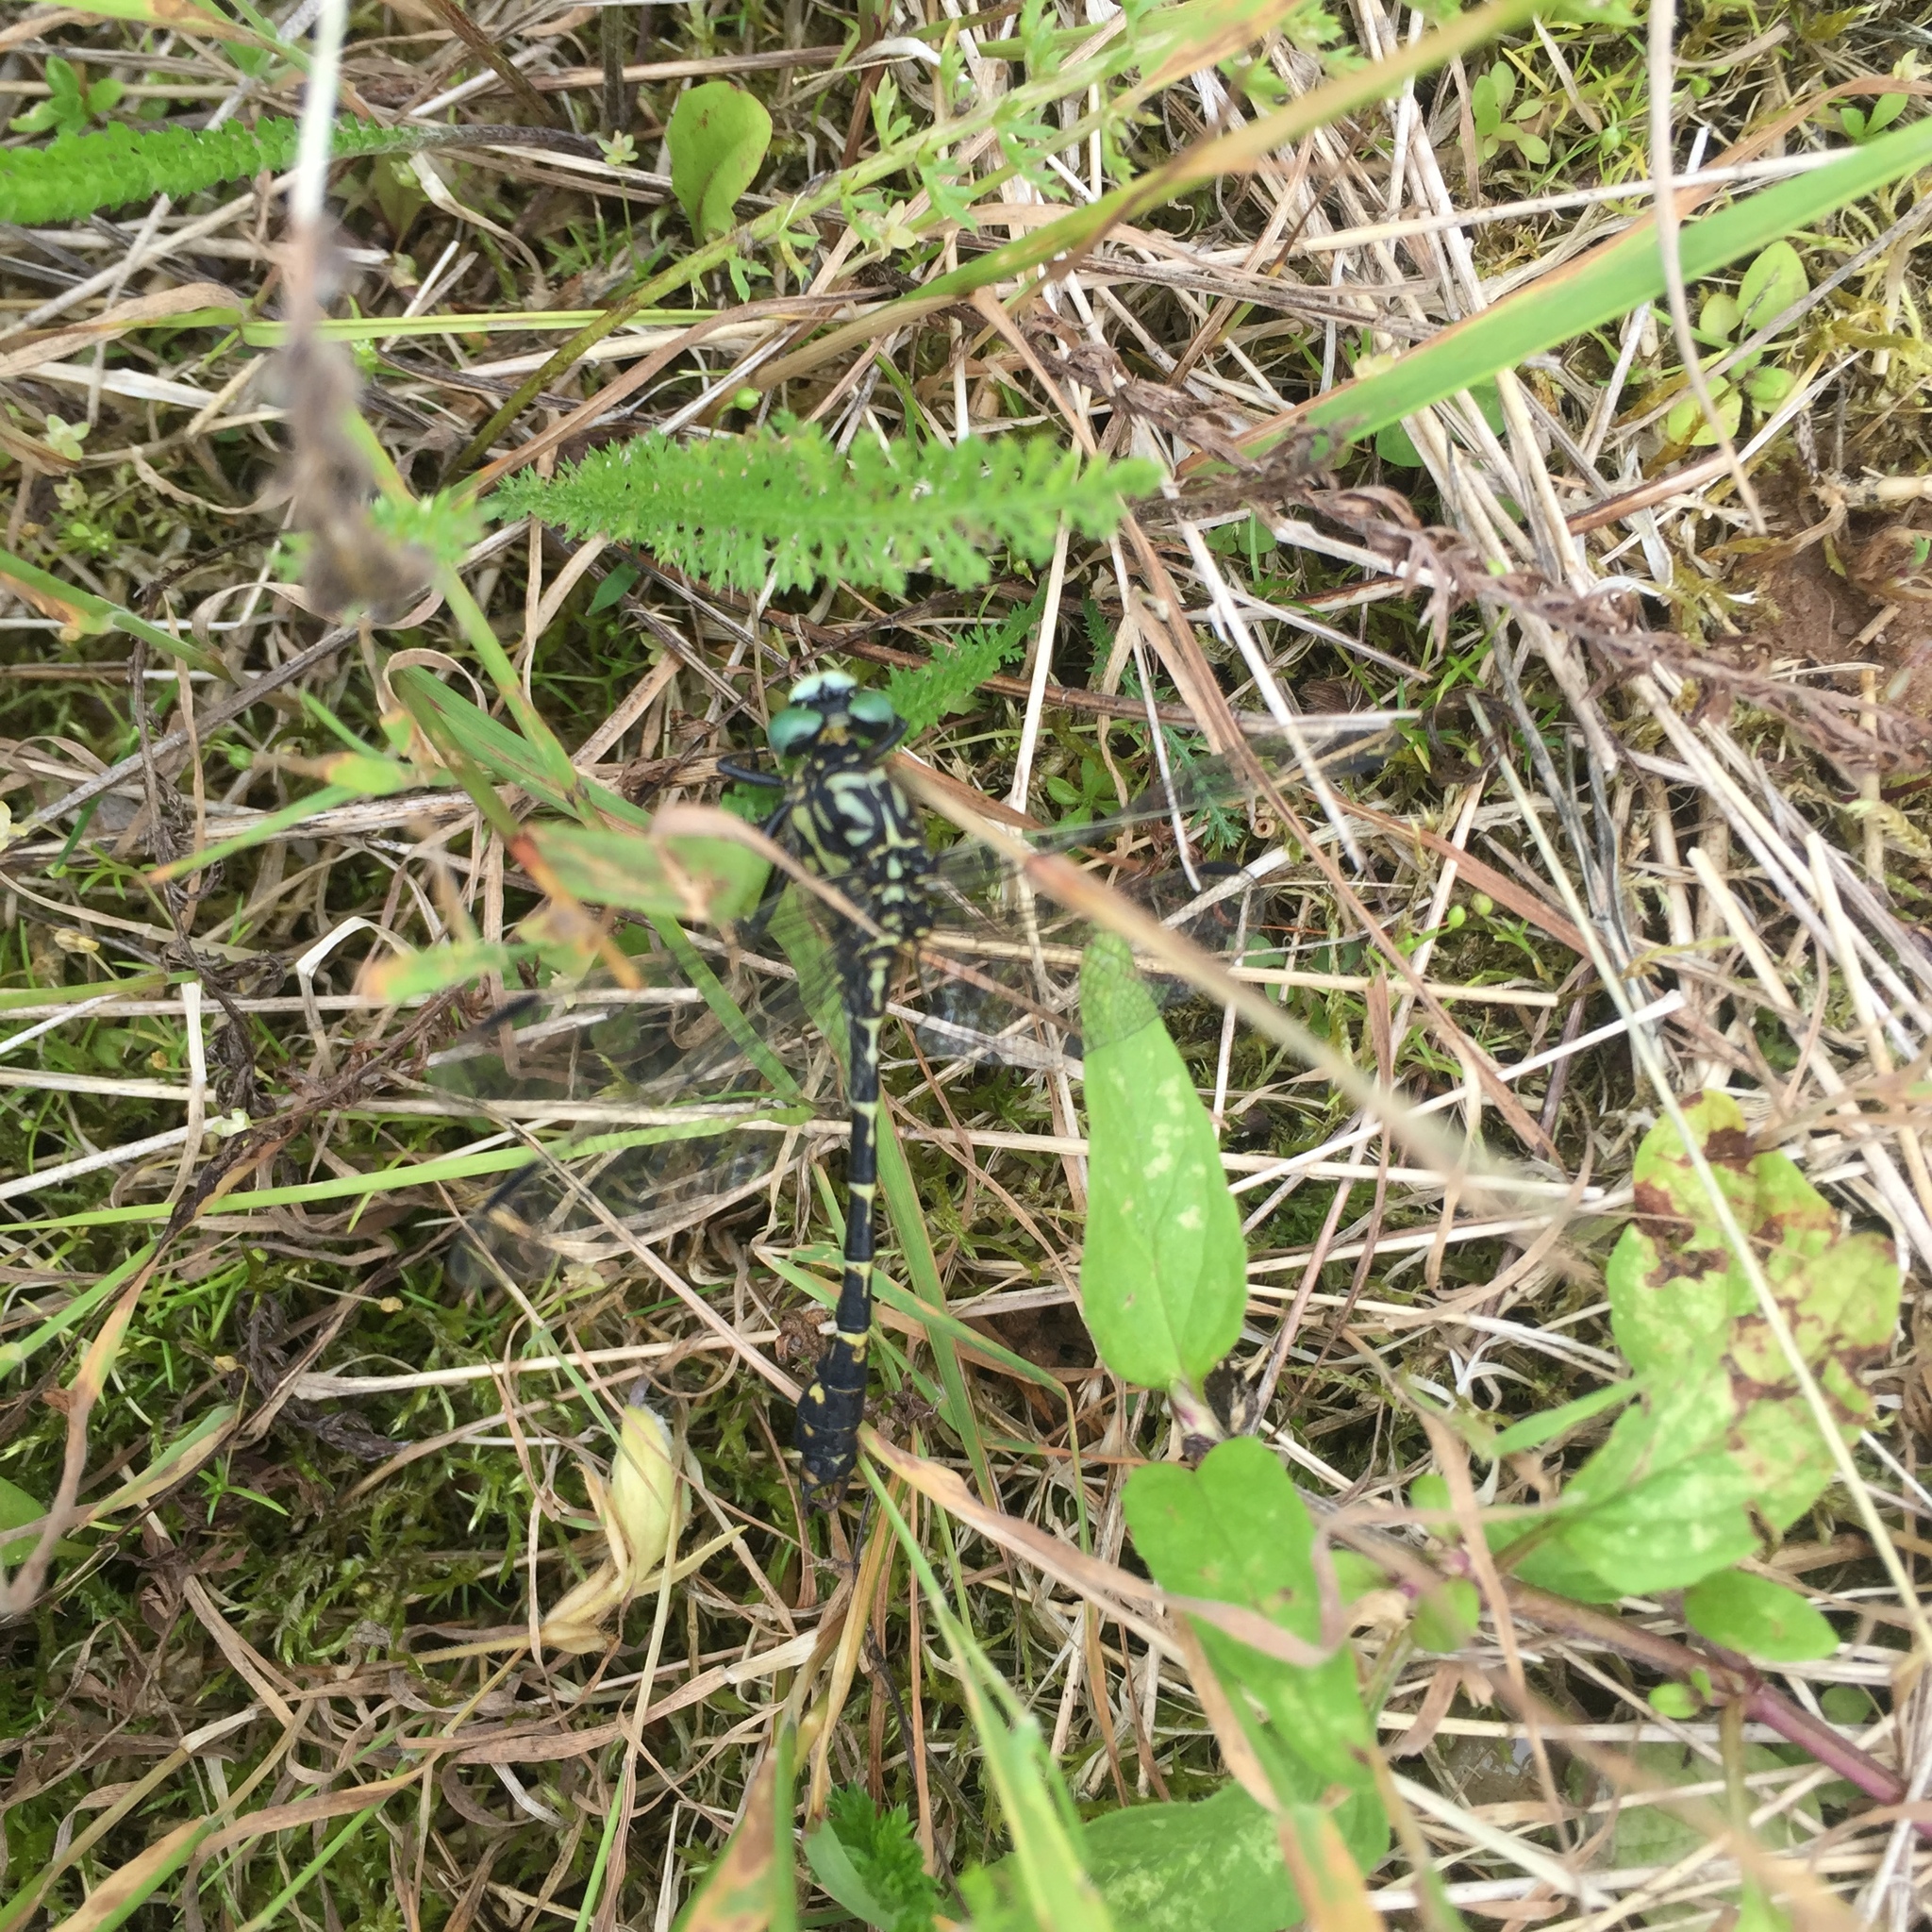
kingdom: Animalia
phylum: Arthropoda
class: Insecta
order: Odonata
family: Gomphidae
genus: Onychogomphus
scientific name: Onychogomphus forcipatus
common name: Small pincertail
